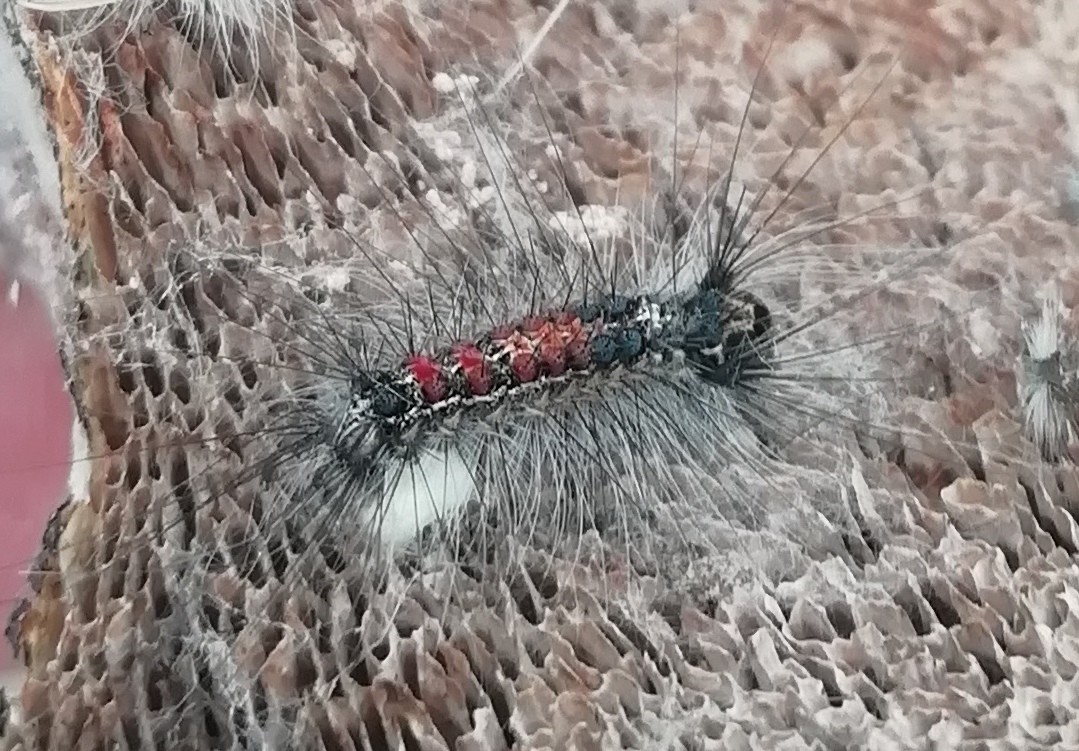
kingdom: Animalia
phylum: Arthropoda
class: Insecta
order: Lepidoptera
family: Erebidae
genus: Lymantria
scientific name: Lymantria dispar
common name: Gypsy moth
